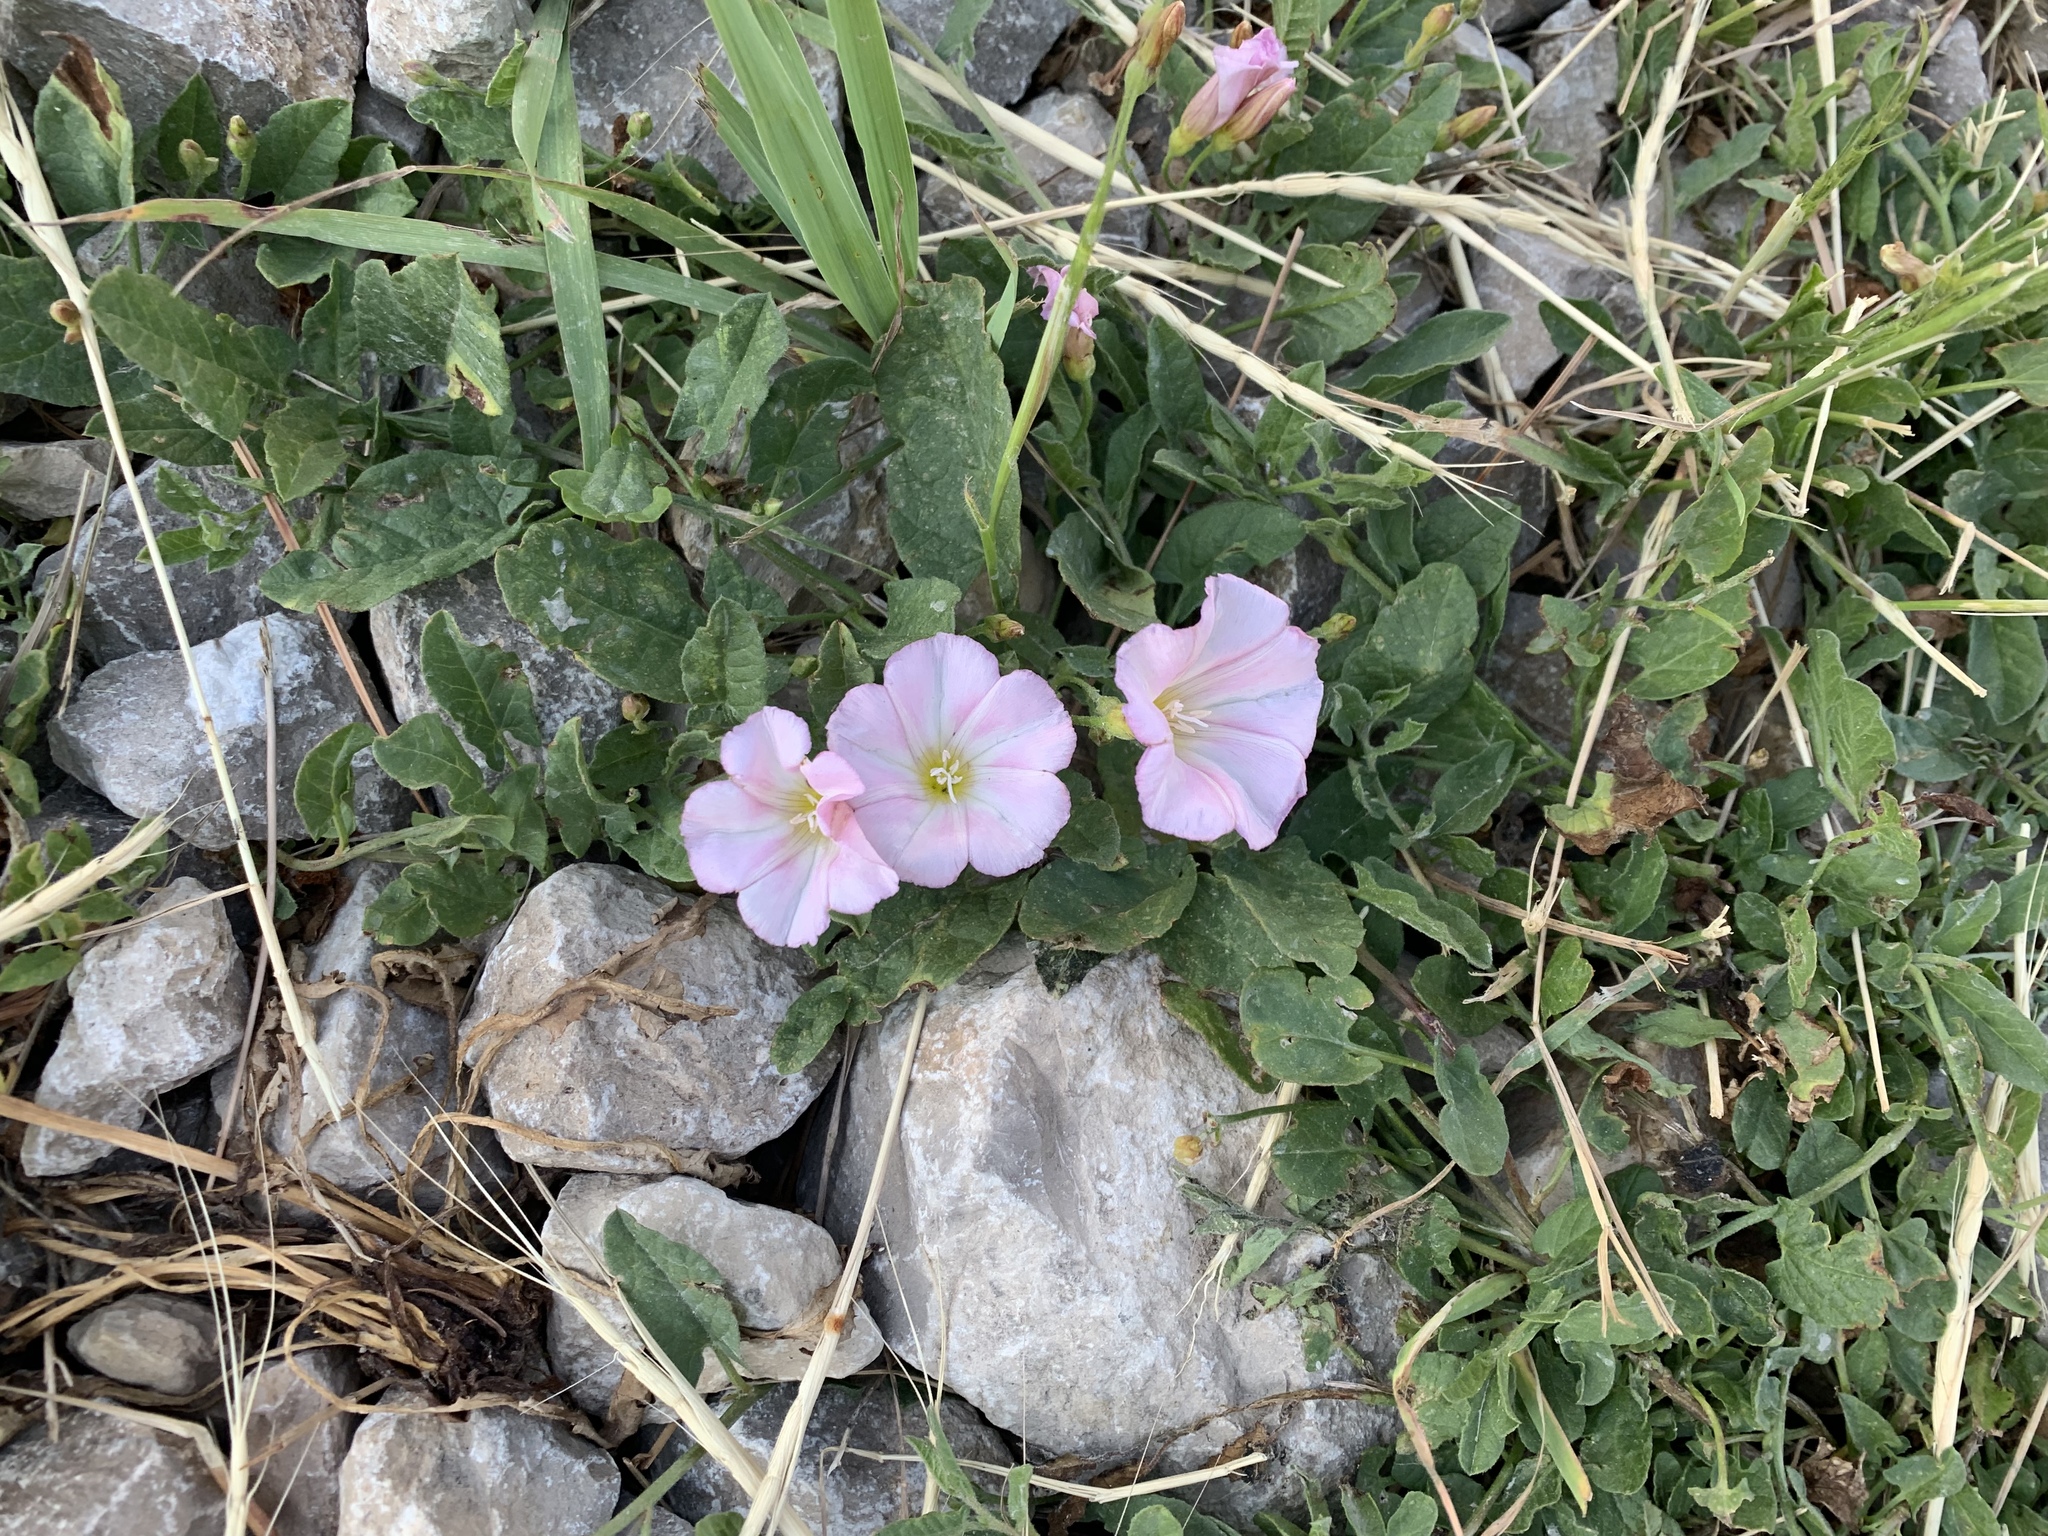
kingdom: Plantae
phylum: Tracheophyta
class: Magnoliopsida
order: Solanales
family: Convolvulaceae
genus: Convolvulus
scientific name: Convolvulus arvensis
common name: Field bindweed
